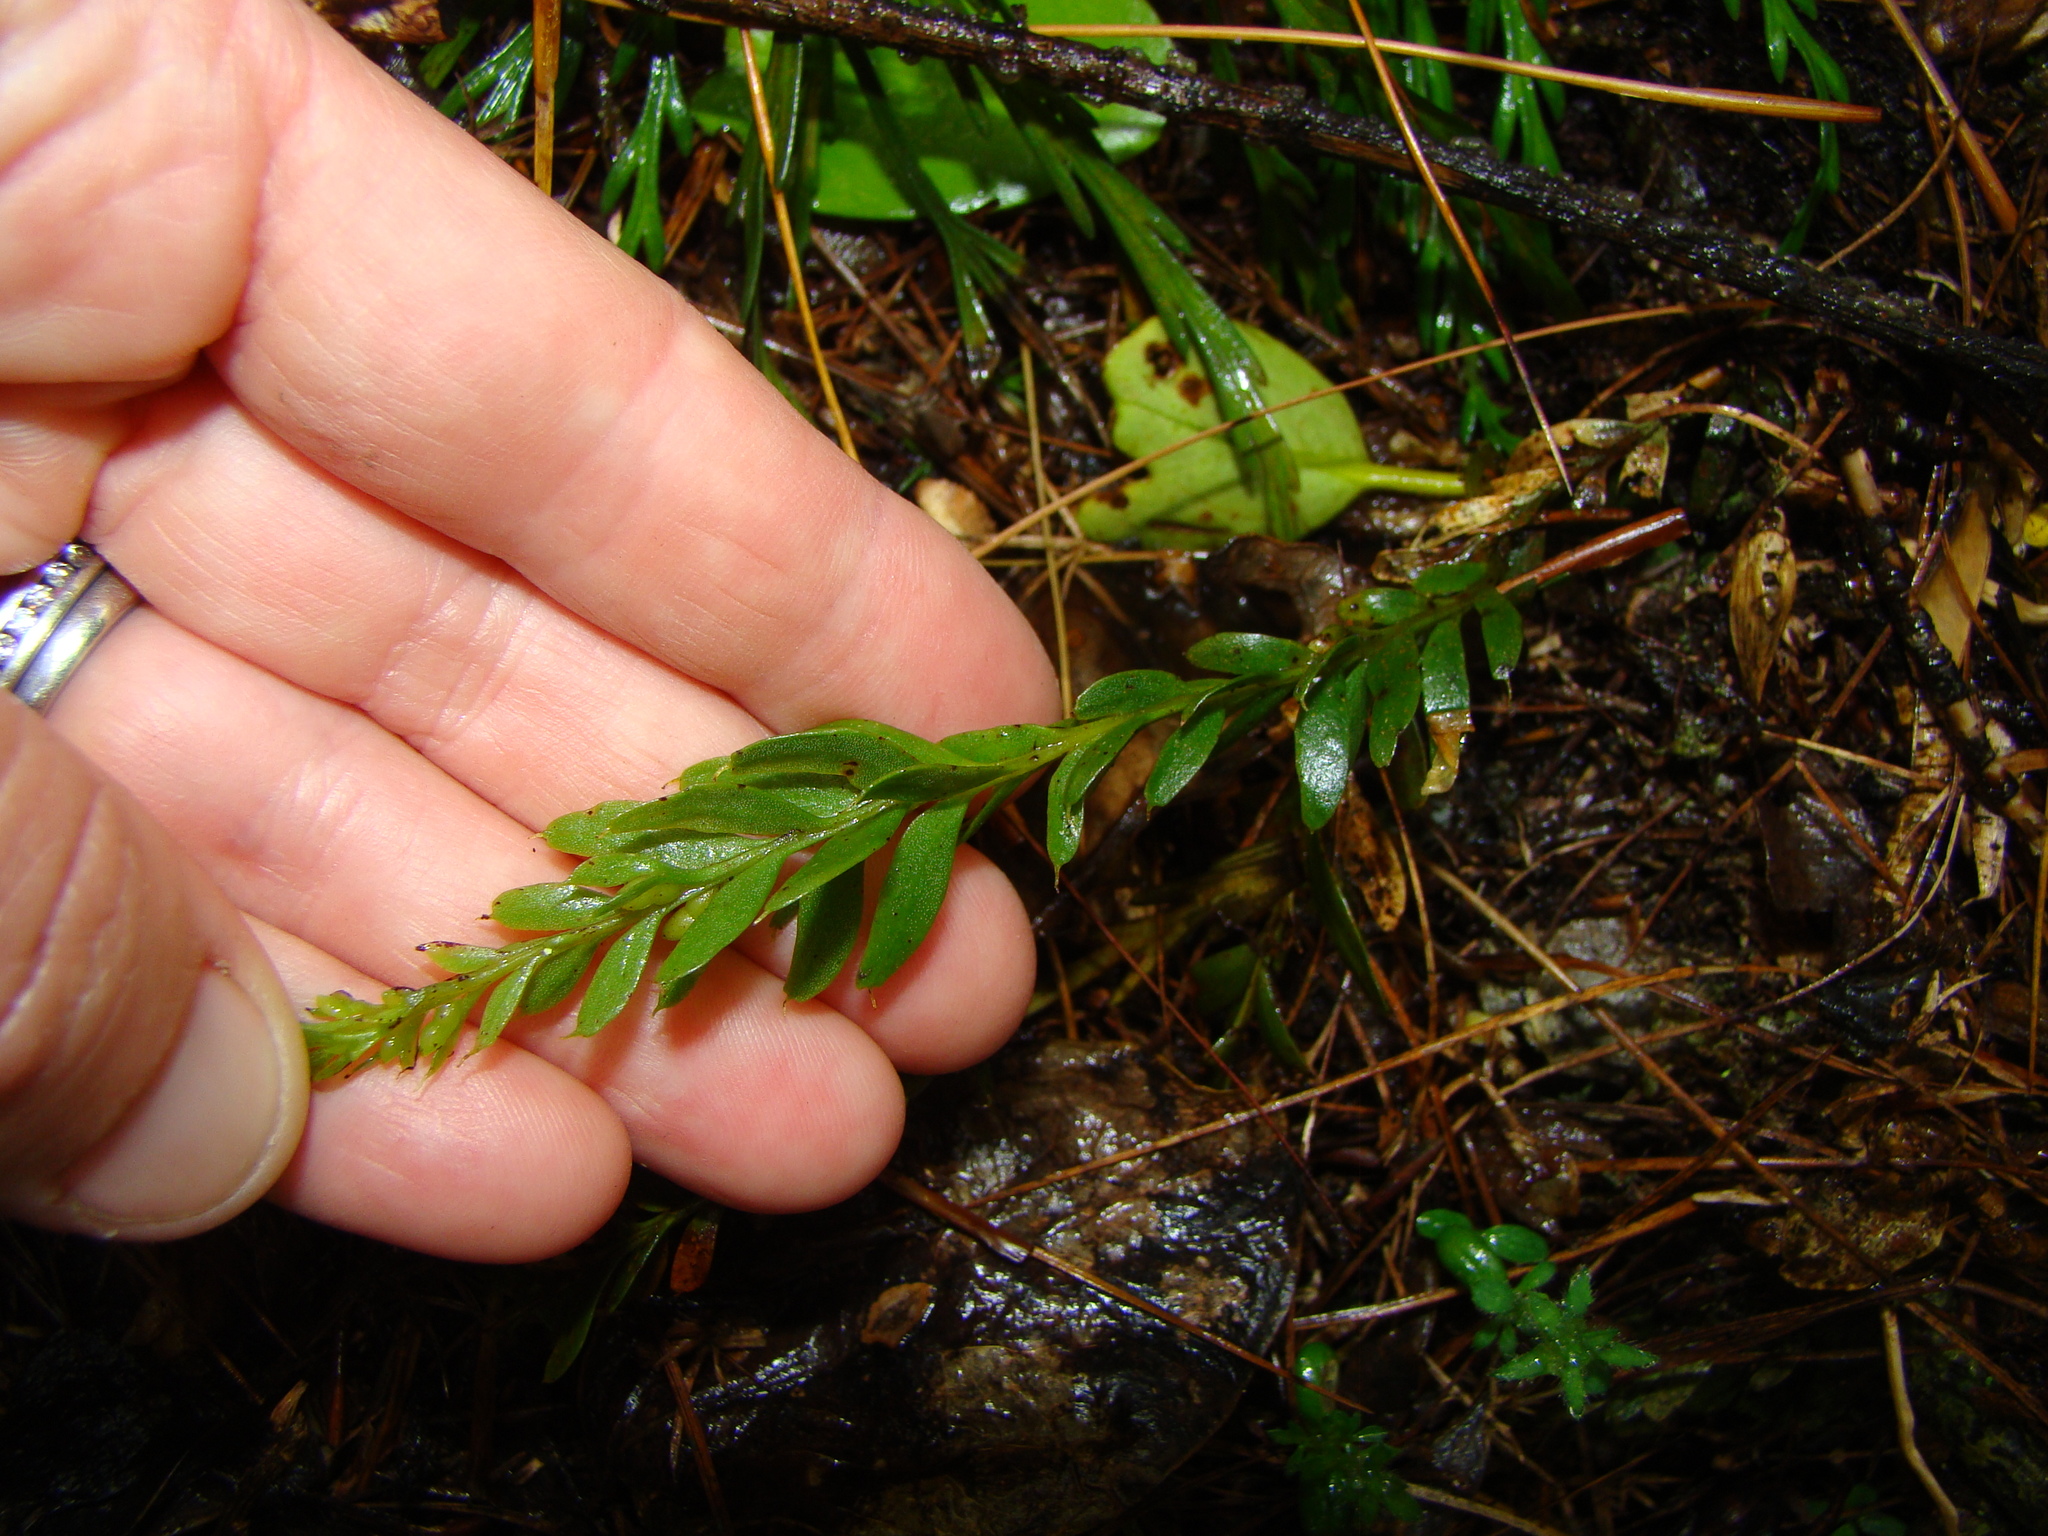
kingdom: Plantae
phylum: Tracheophyta
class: Polypodiopsida
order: Psilotales
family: Psilotaceae
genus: Tmesipteris
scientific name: Tmesipteris tannensis
